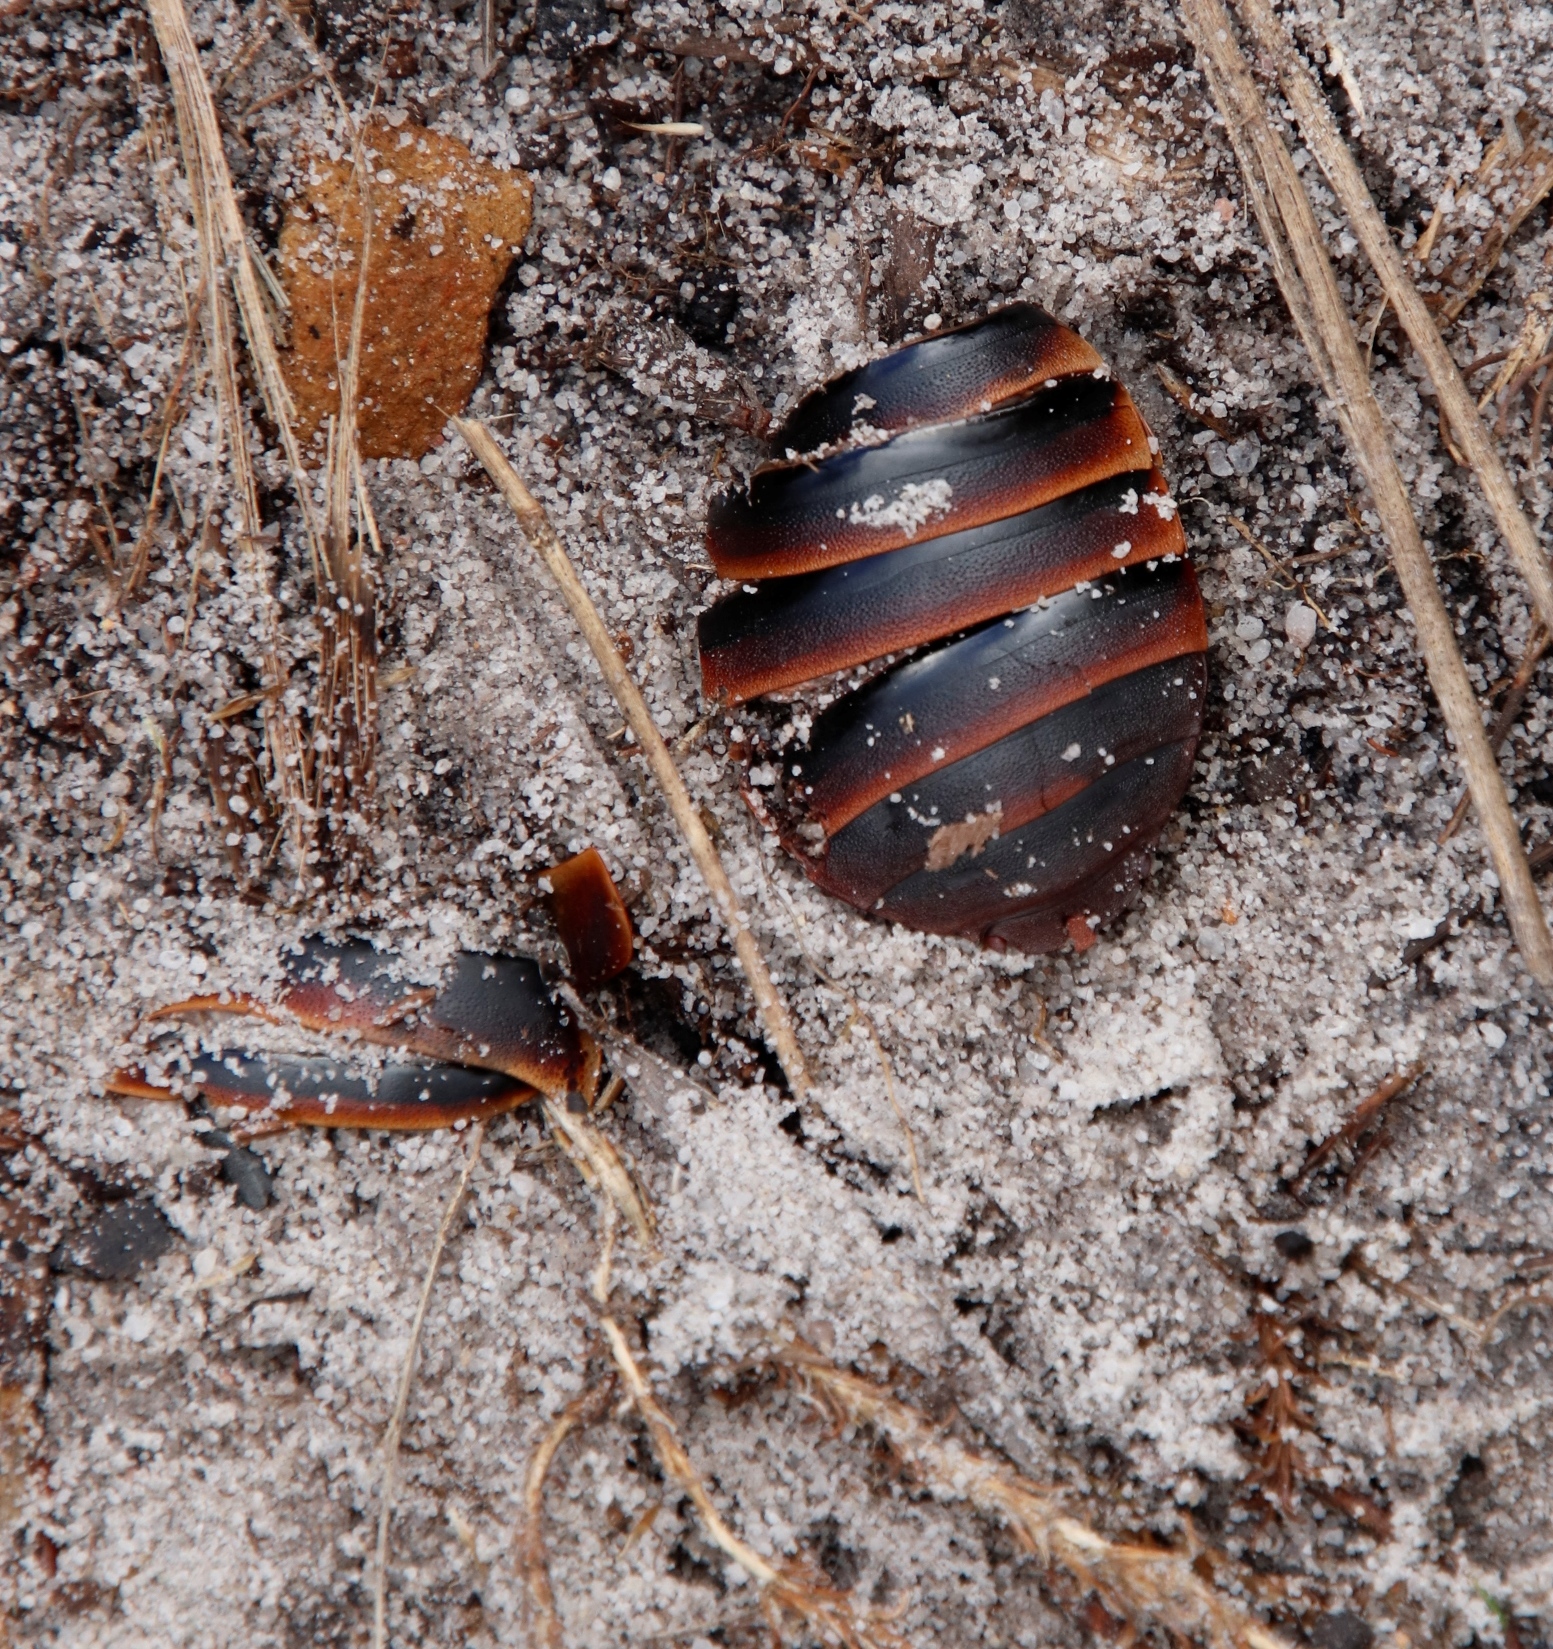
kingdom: Animalia
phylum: Arthropoda
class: Insecta
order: Blattodea
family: Blaberidae
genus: Aptera
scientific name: Aptera fusca
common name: Cape mountain cockroach
